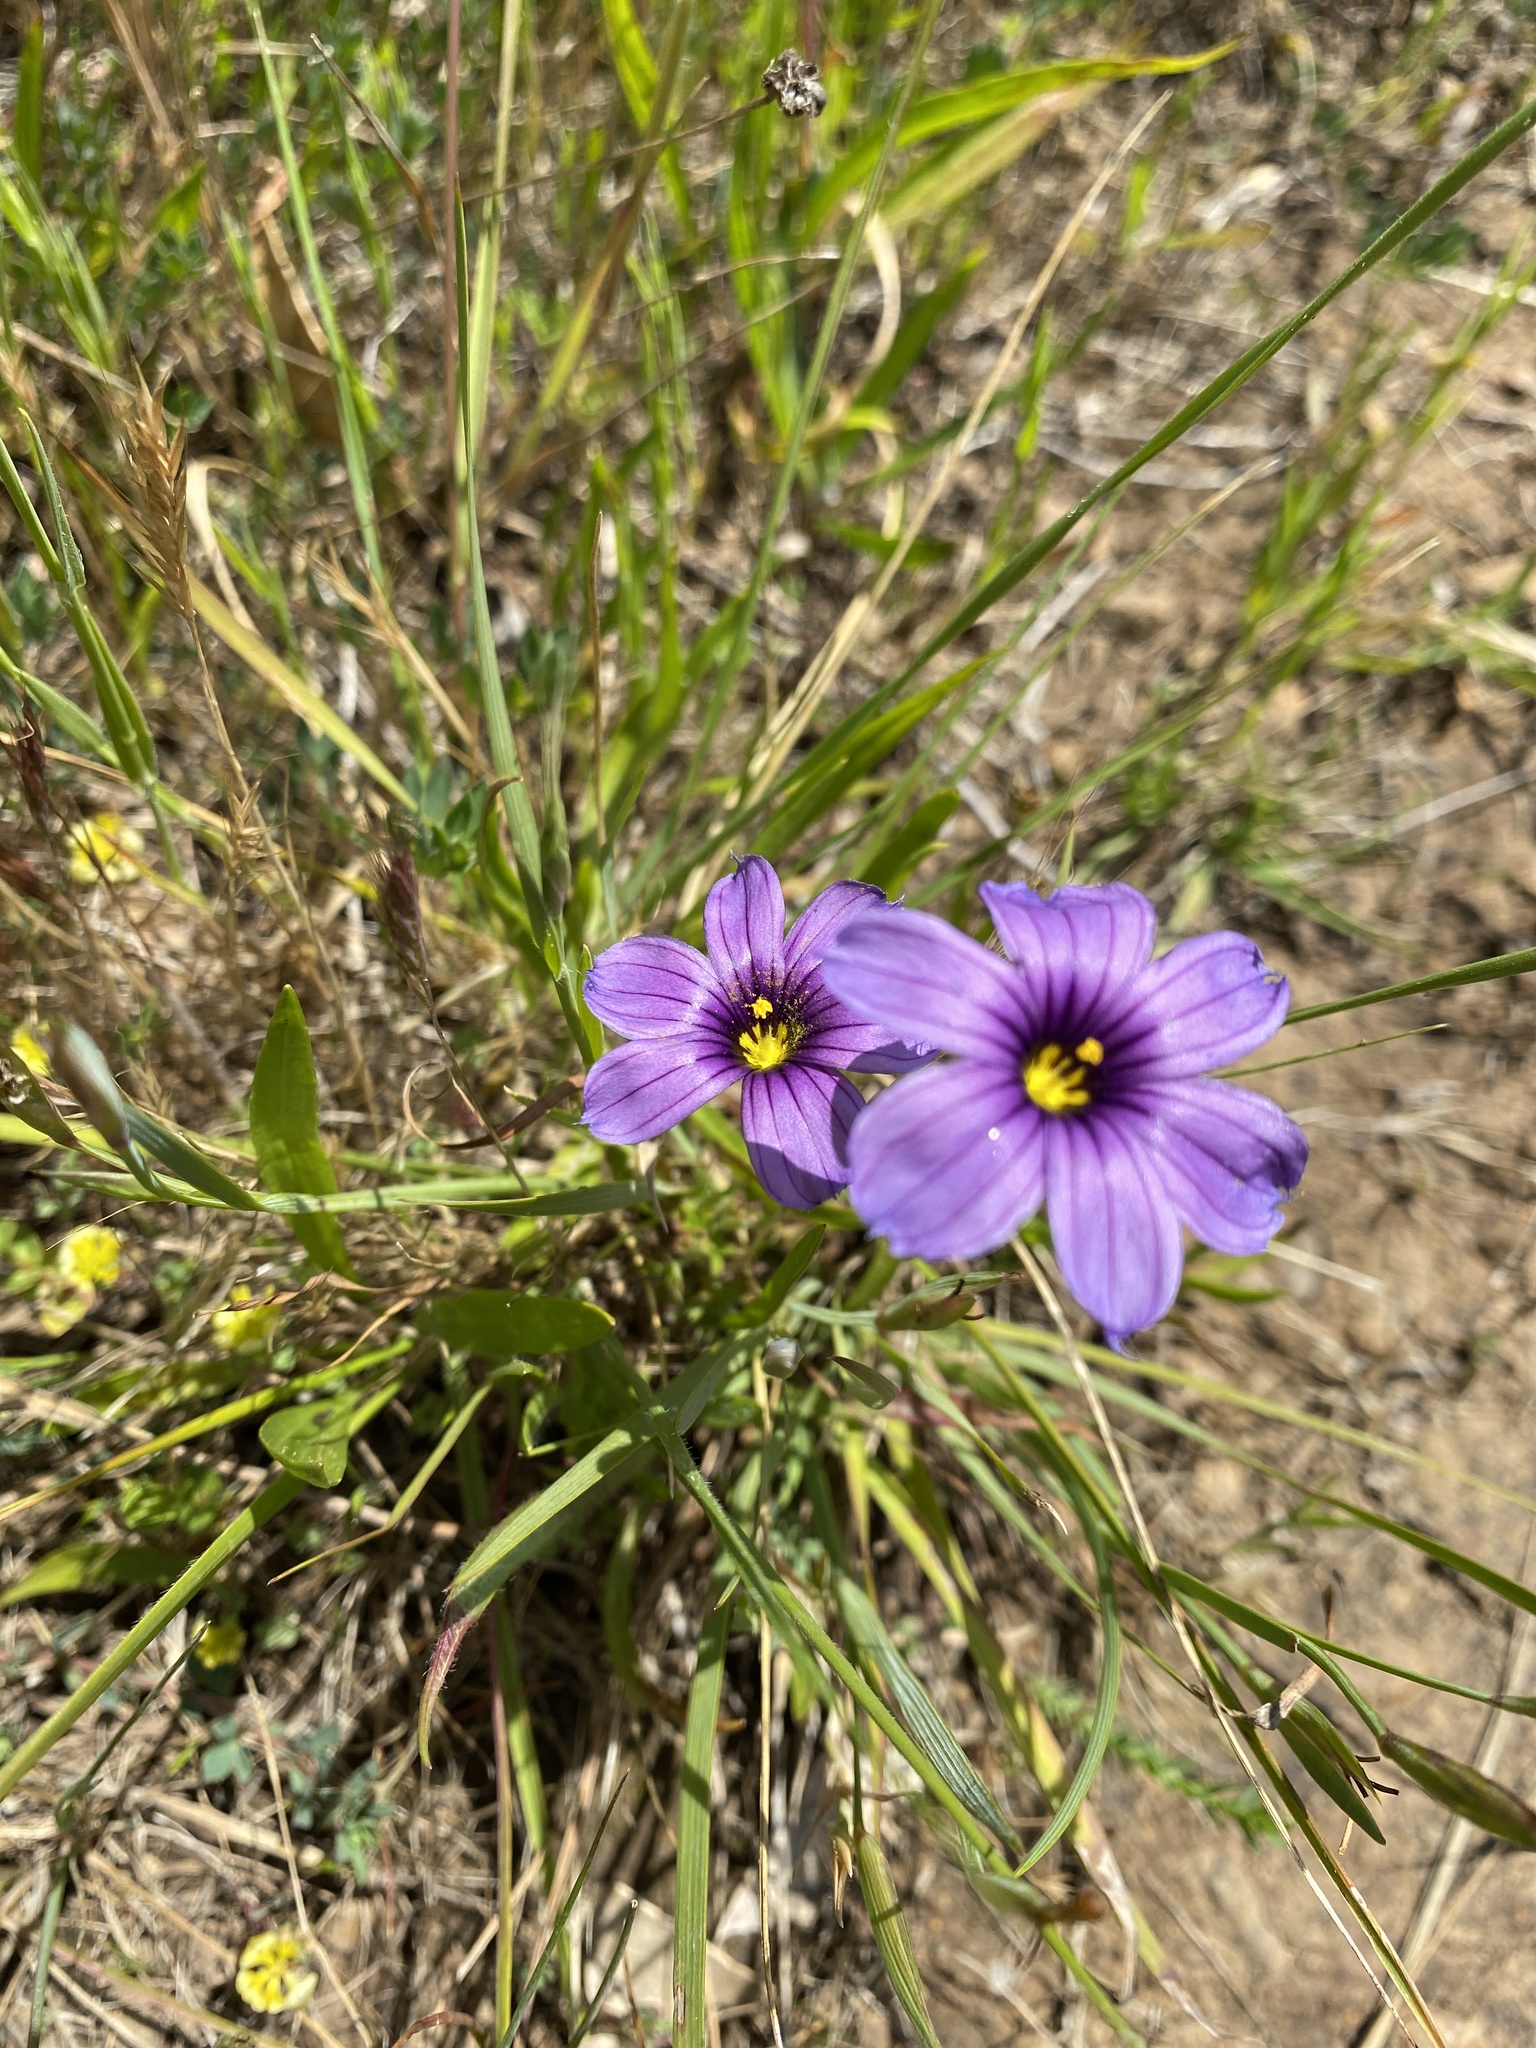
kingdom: Plantae
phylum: Tracheophyta
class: Liliopsida
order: Asparagales
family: Iridaceae
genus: Sisyrinchium
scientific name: Sisyrinchium bellum
